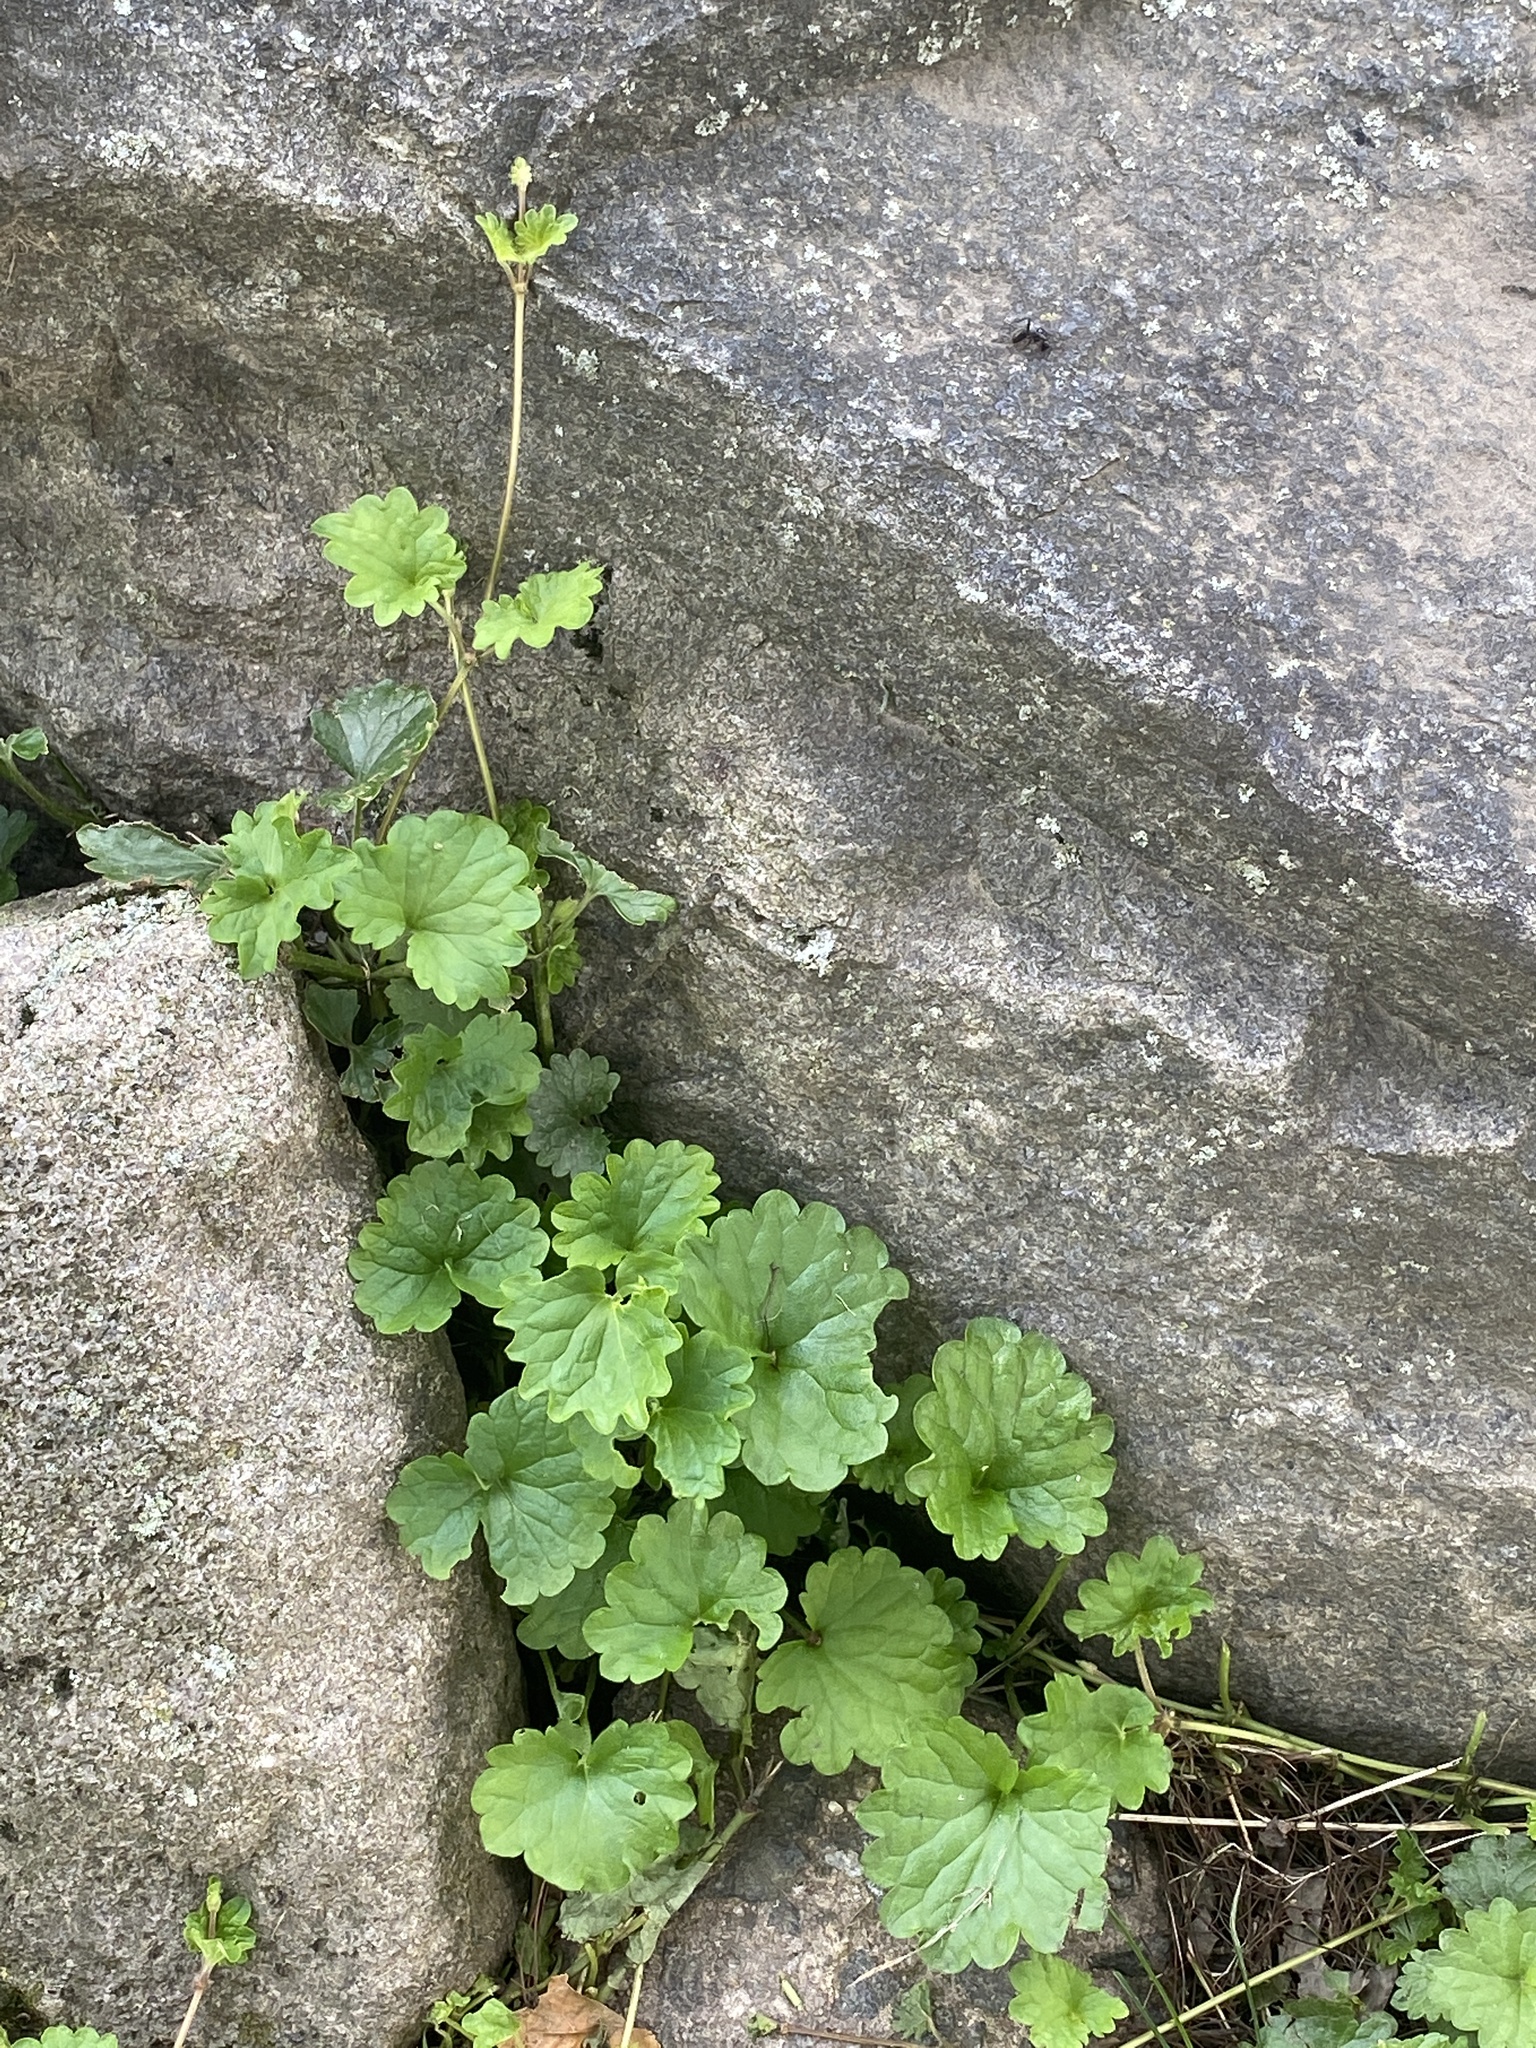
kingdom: Plantae
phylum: Tracheophyta
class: Magnoliopsida
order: Lamiales
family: Lamiaceae
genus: Glechoma
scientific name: Glechoma hederacea
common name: Ground ivy
